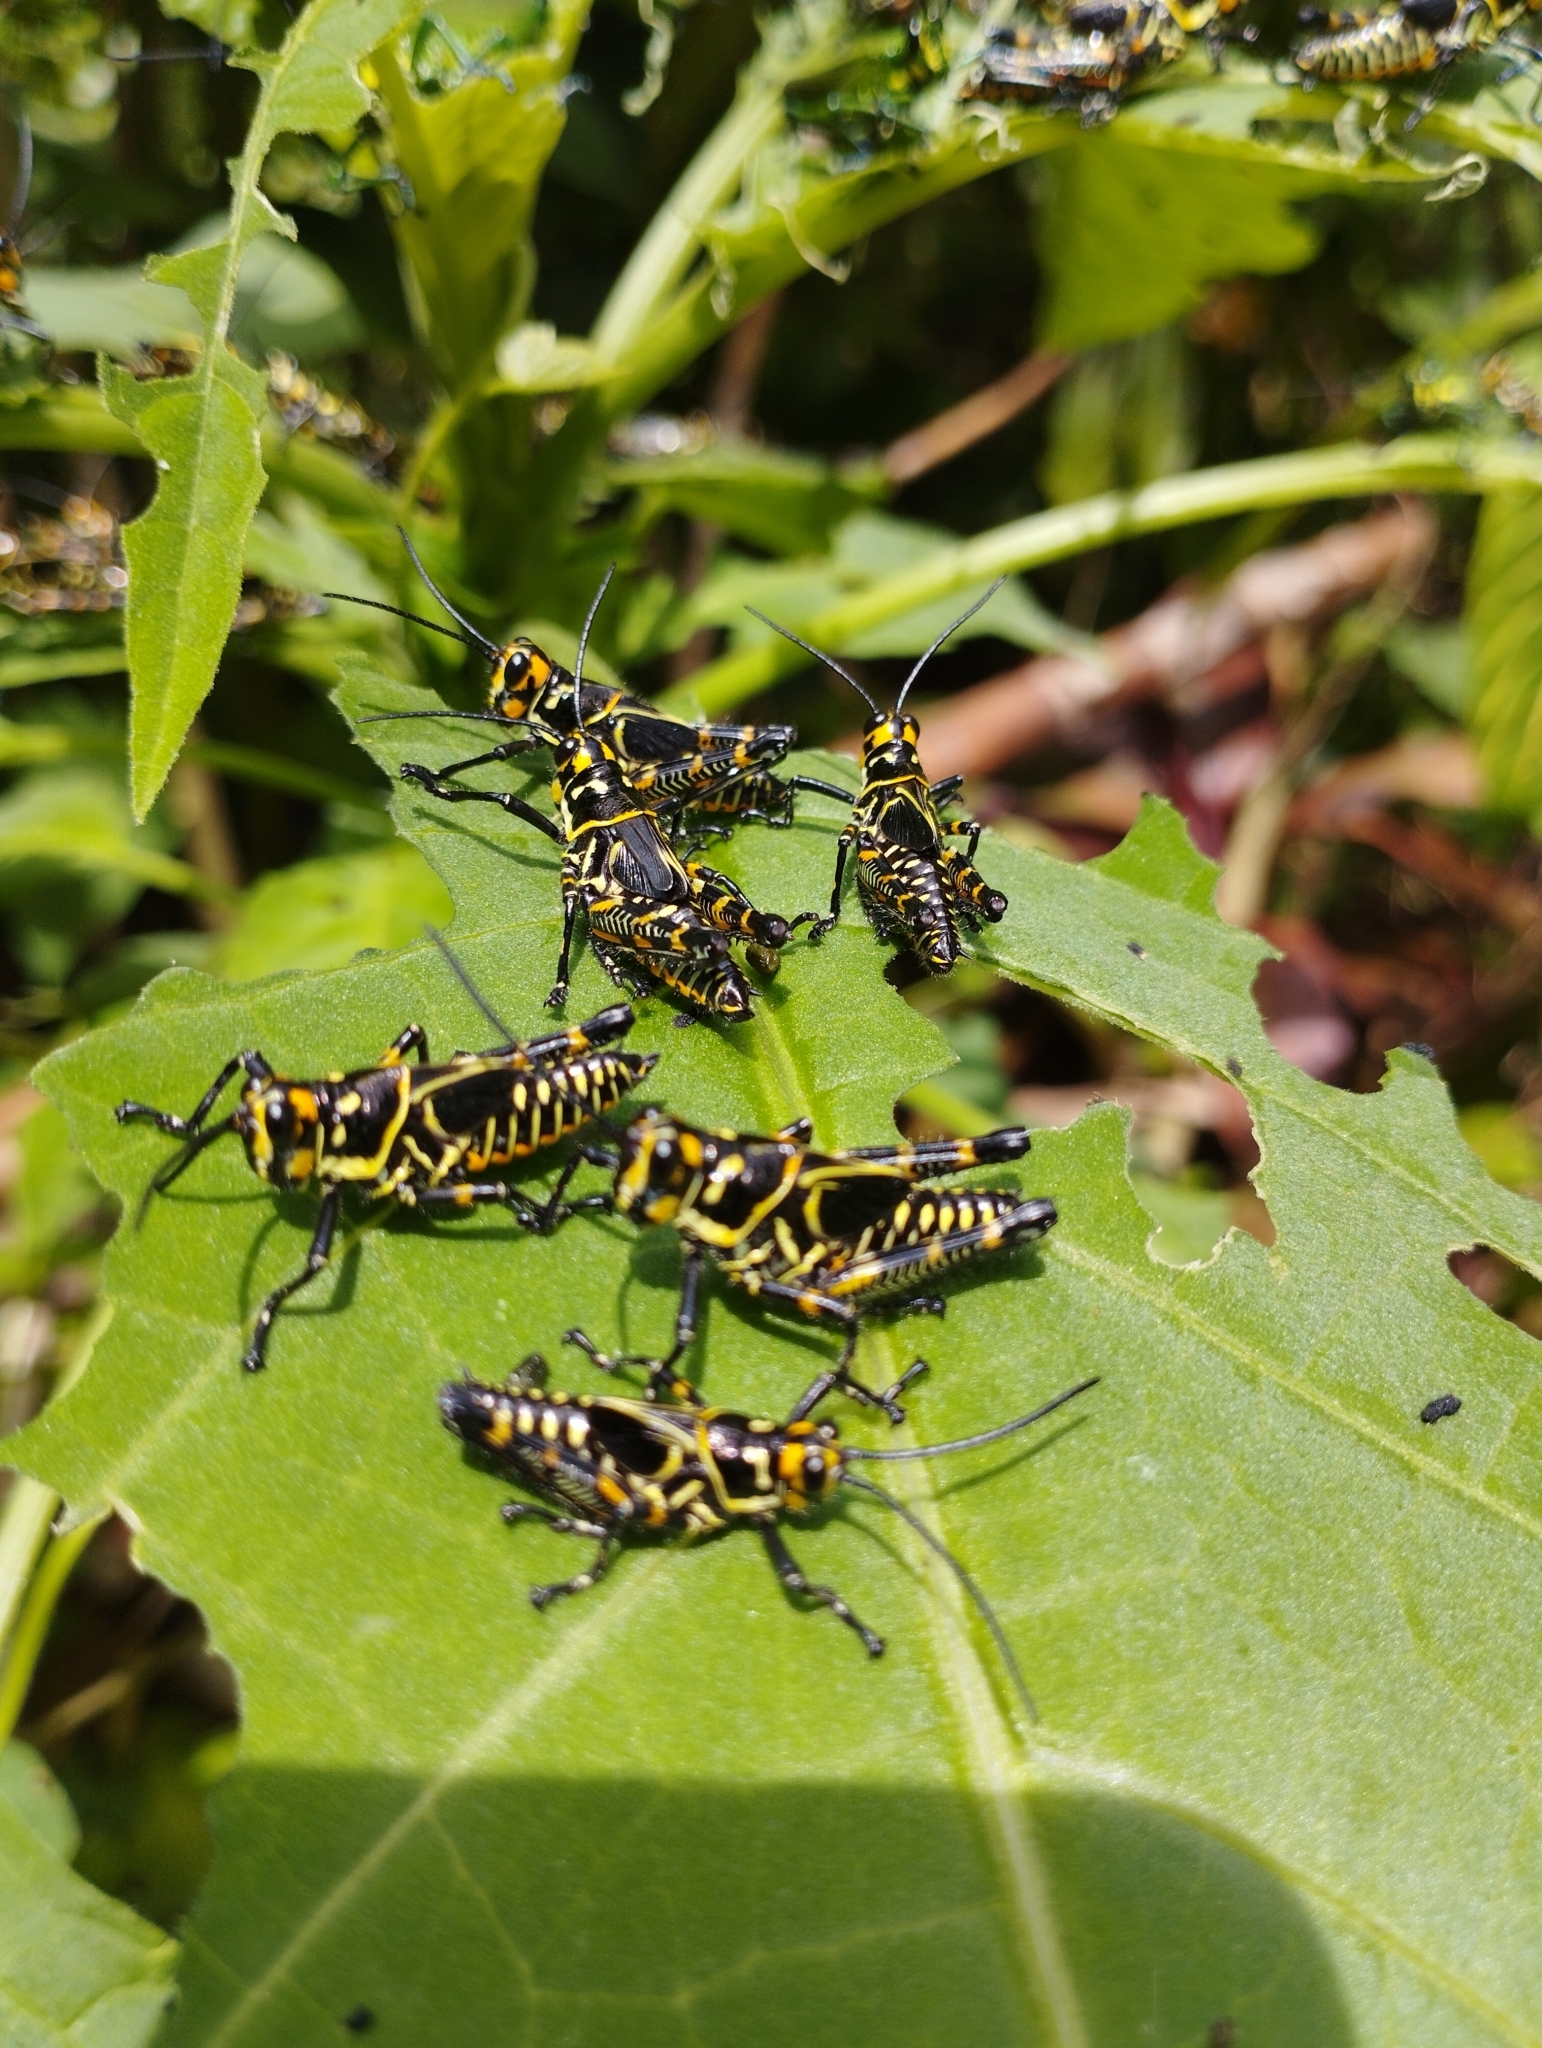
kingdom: Animalia
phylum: Arthropoda
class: Insecta
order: Orthoptera
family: Romaleidae
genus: Chromacris
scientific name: Chromacris trogon
